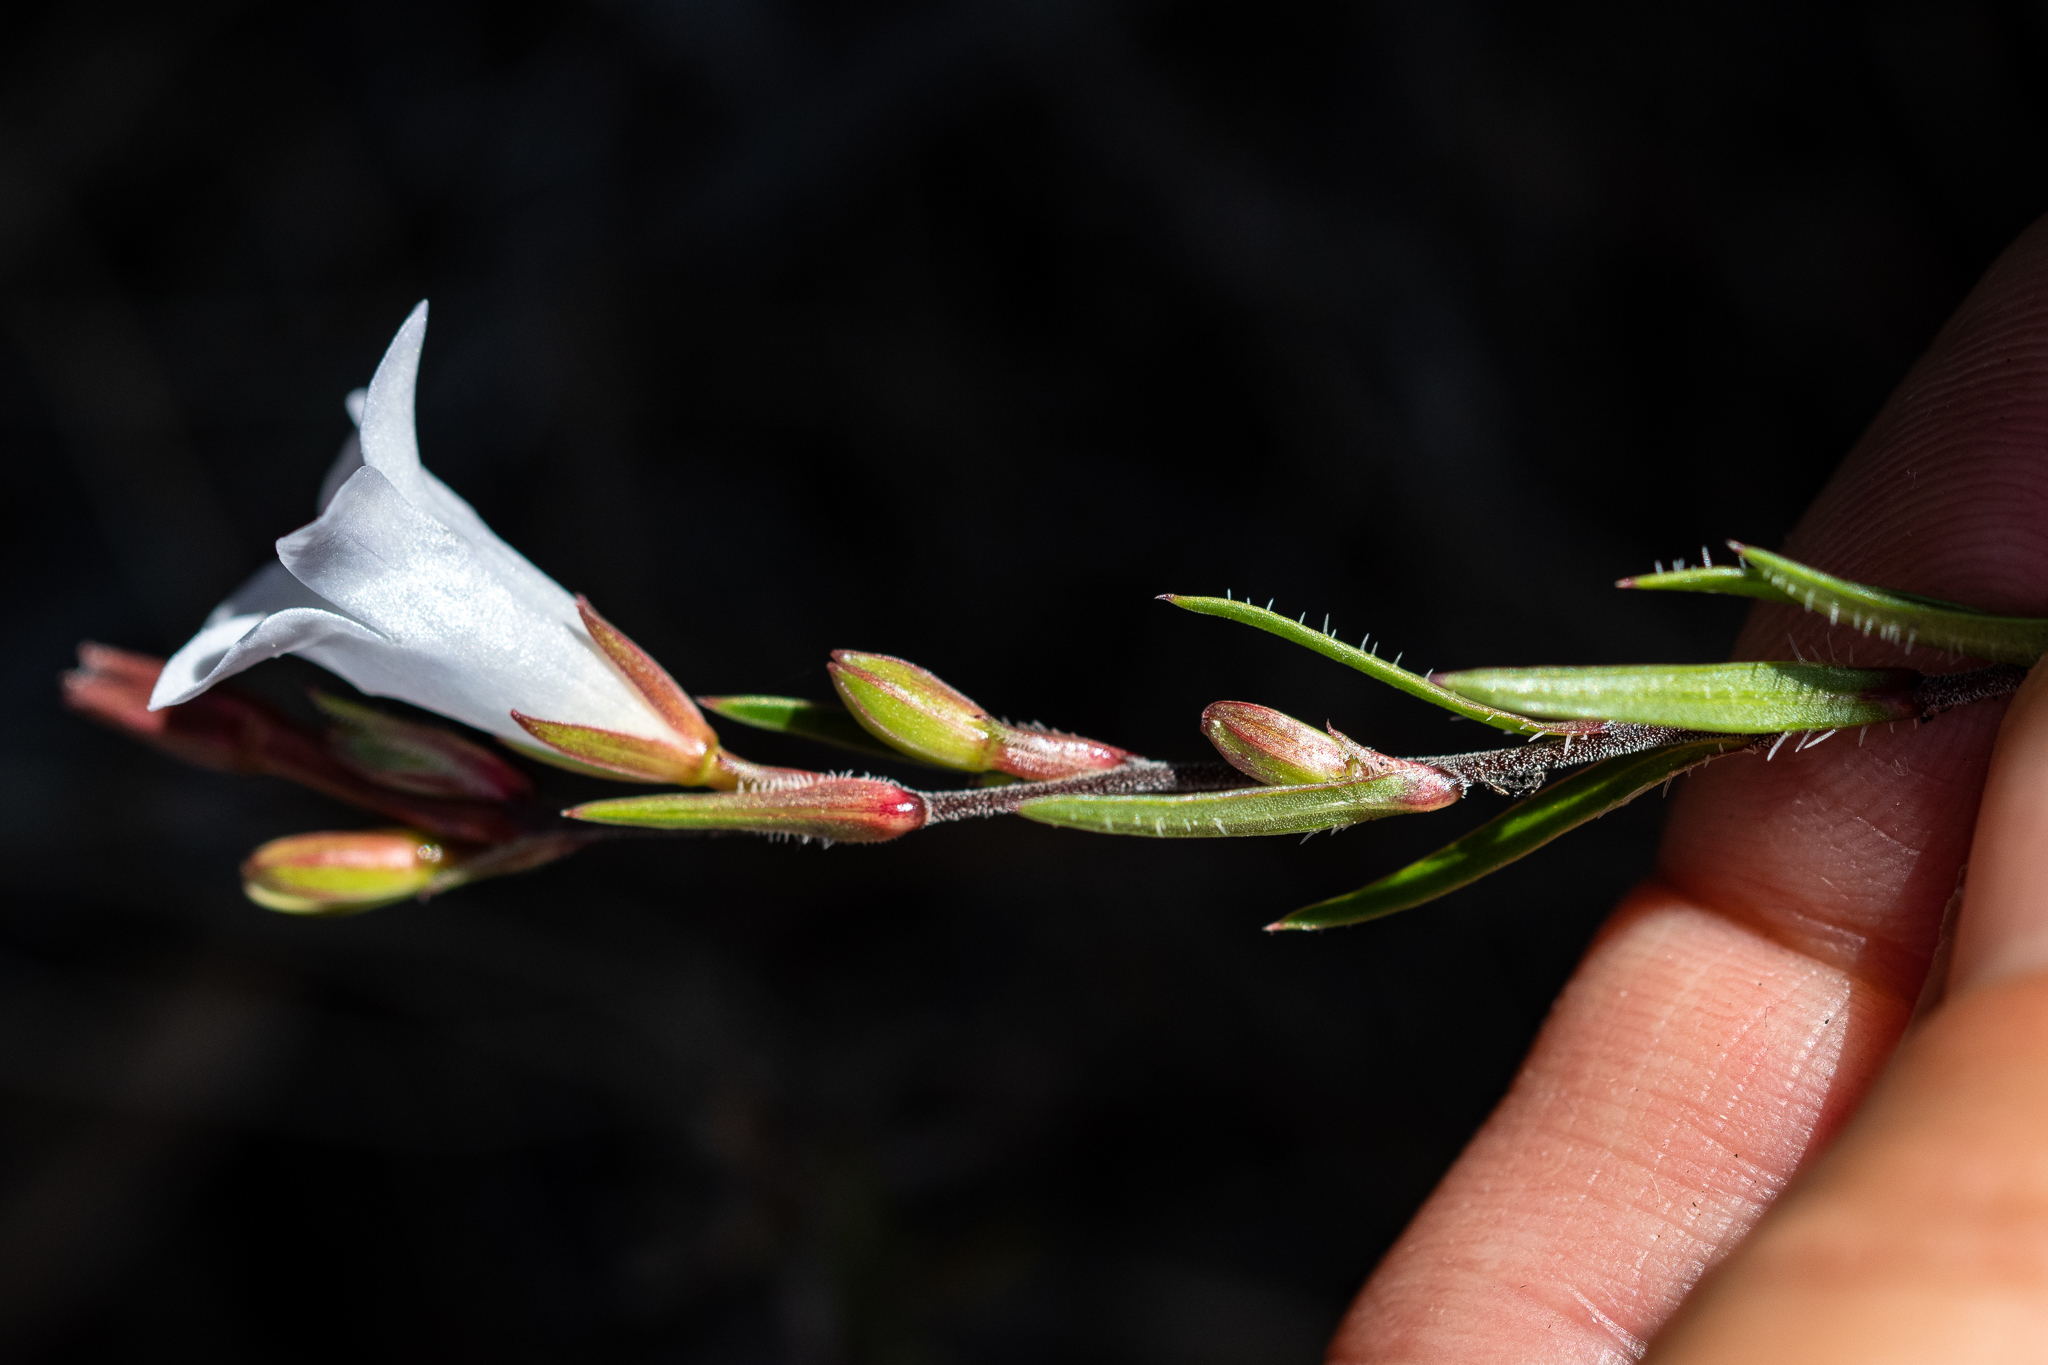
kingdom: Plantae
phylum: Tracheophyta
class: Magnoliopsida
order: Asterales
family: Campanulaceae
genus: Prismatocarpus
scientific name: Prismatocarpus schlechteri
